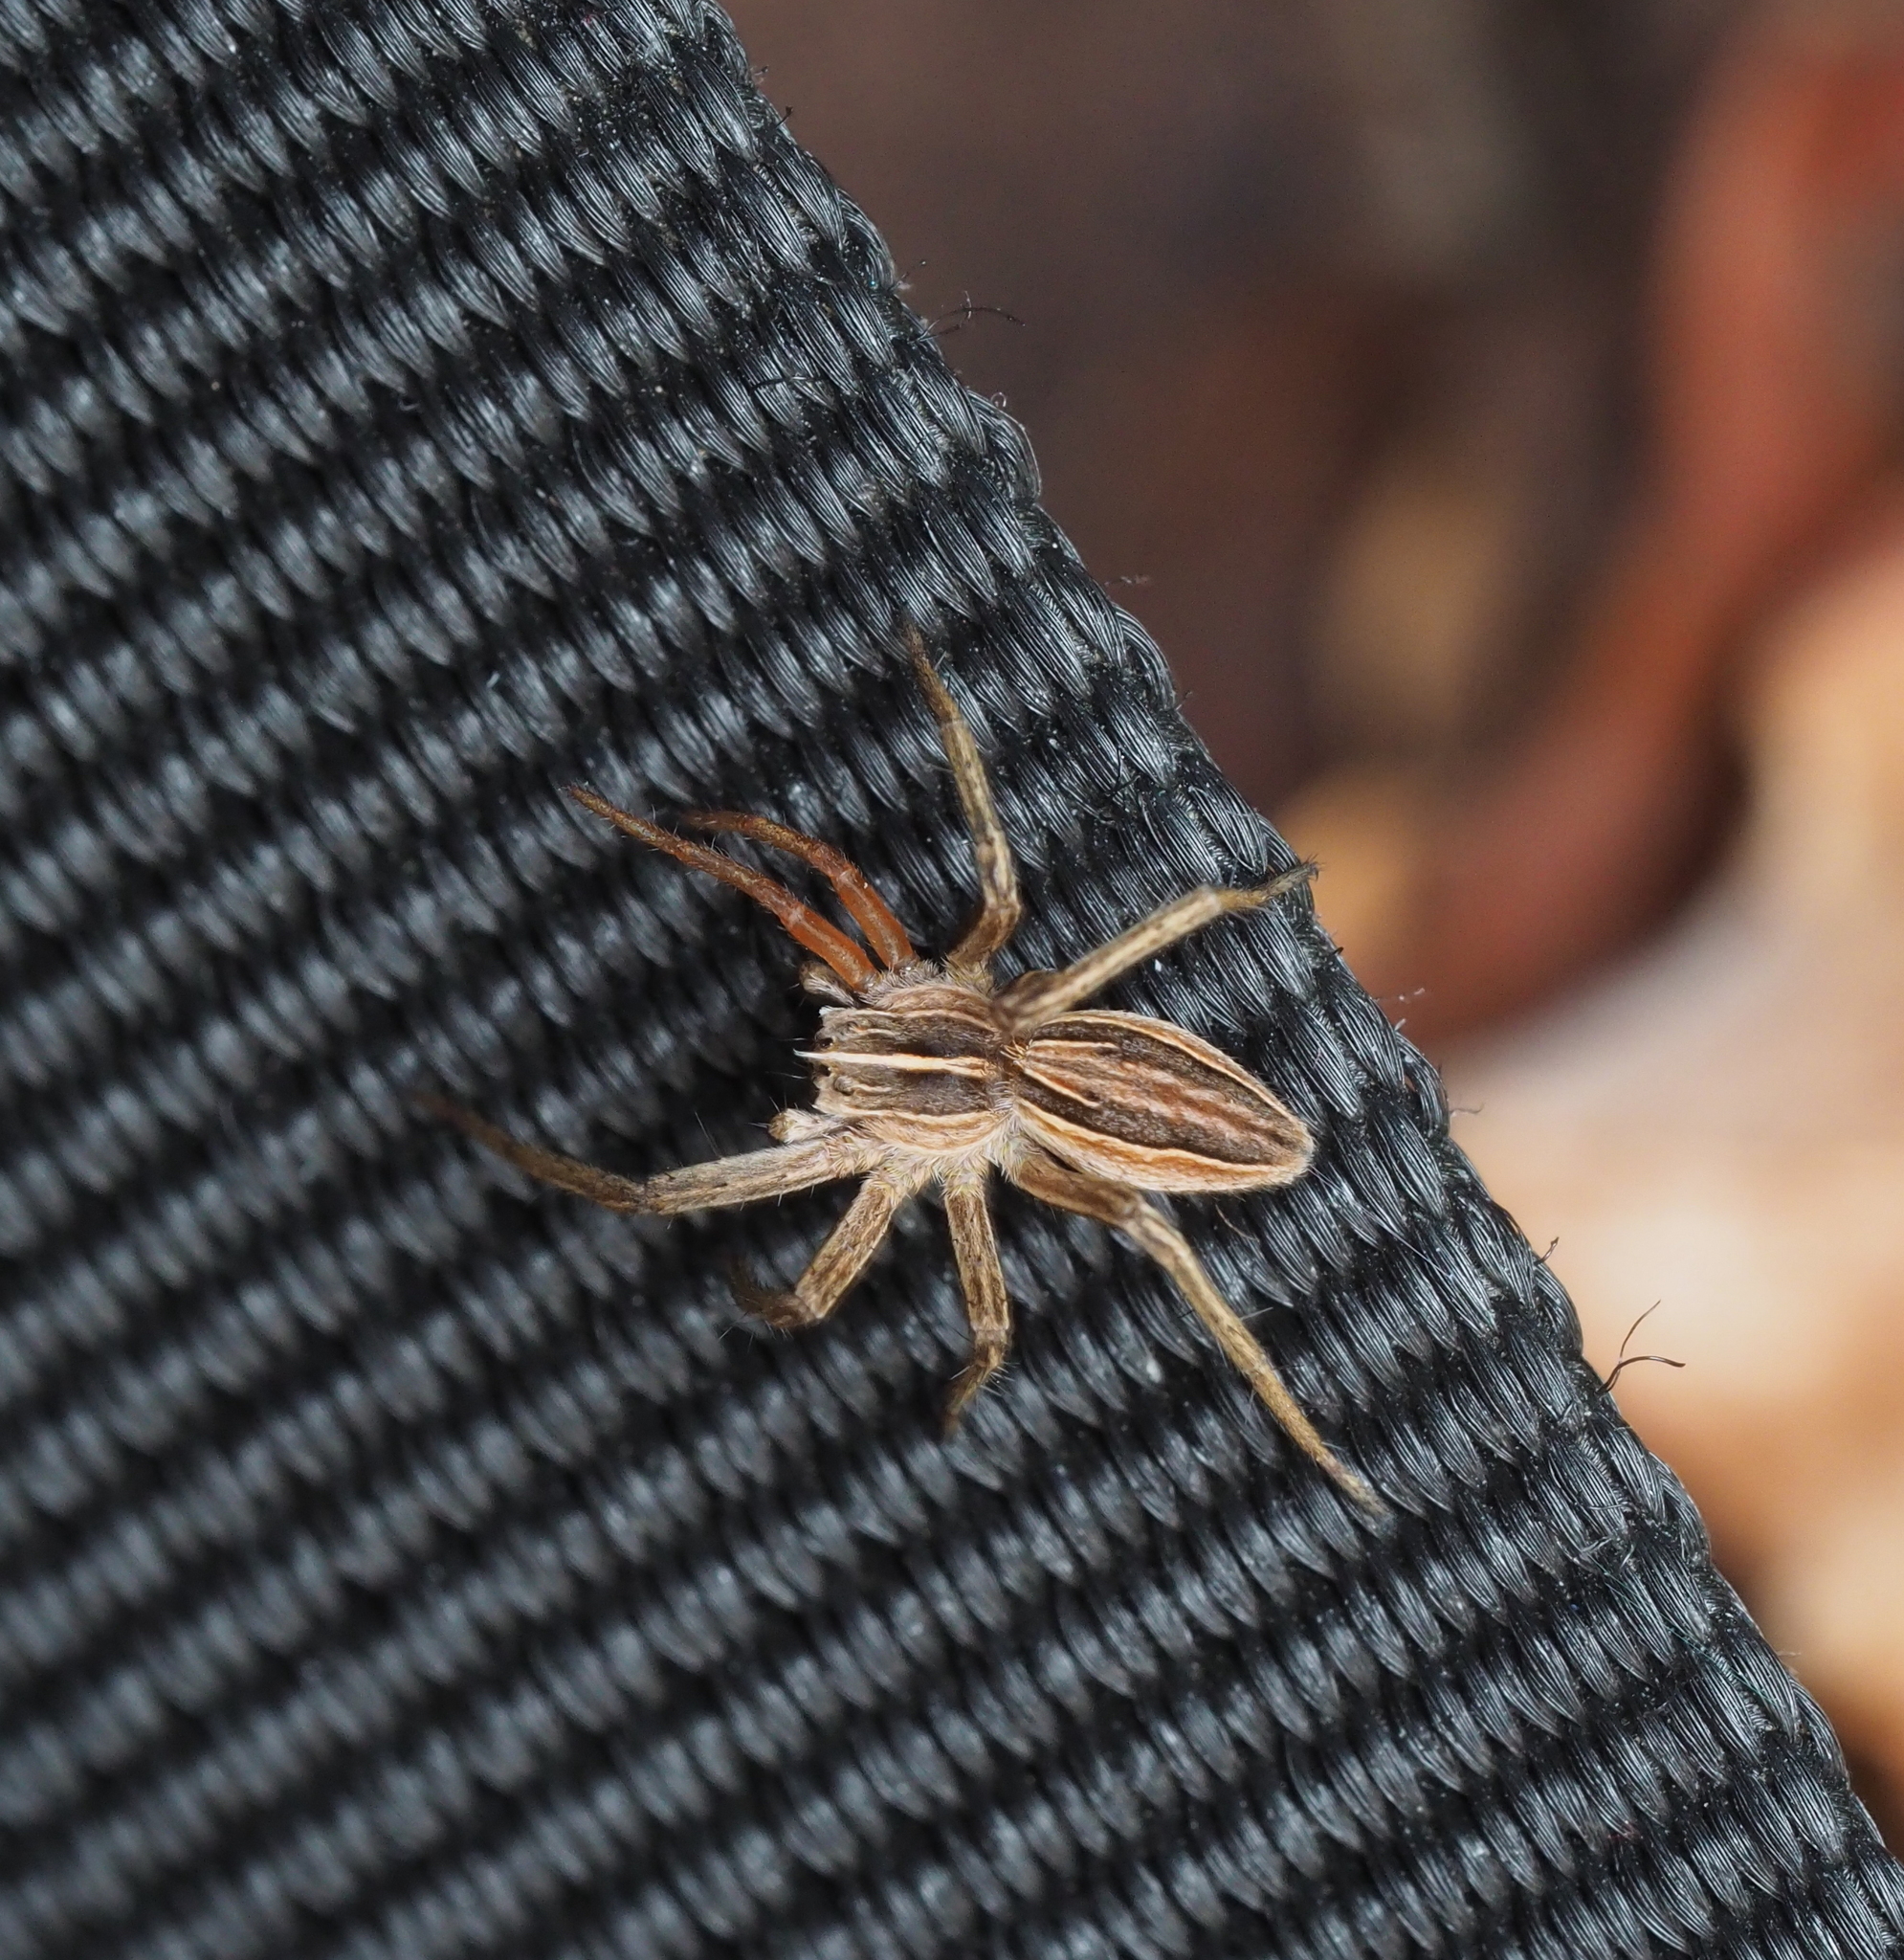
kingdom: Animalia
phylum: Arthropoda
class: Arachnida
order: Araneae
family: Pisauridae
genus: Pisaura
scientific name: Pisaura mirabilis
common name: Tent spider
